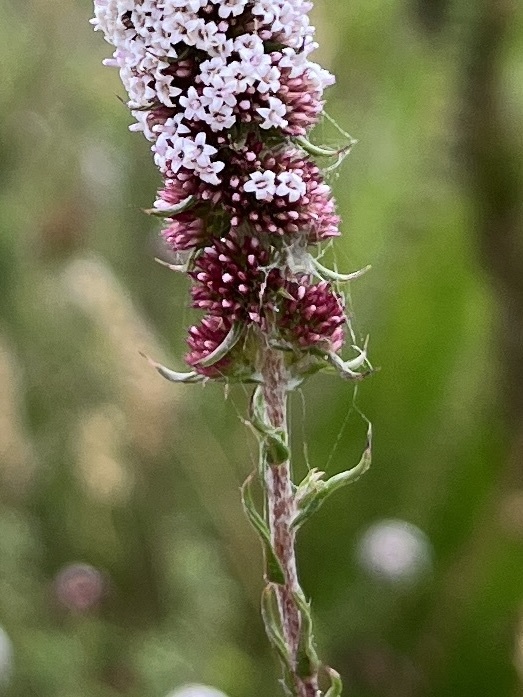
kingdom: Plantae
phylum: Tracheophyta
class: Magnoliopsida
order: Asterales
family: Asteraceae
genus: Stoebe
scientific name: Stoebe capitata
